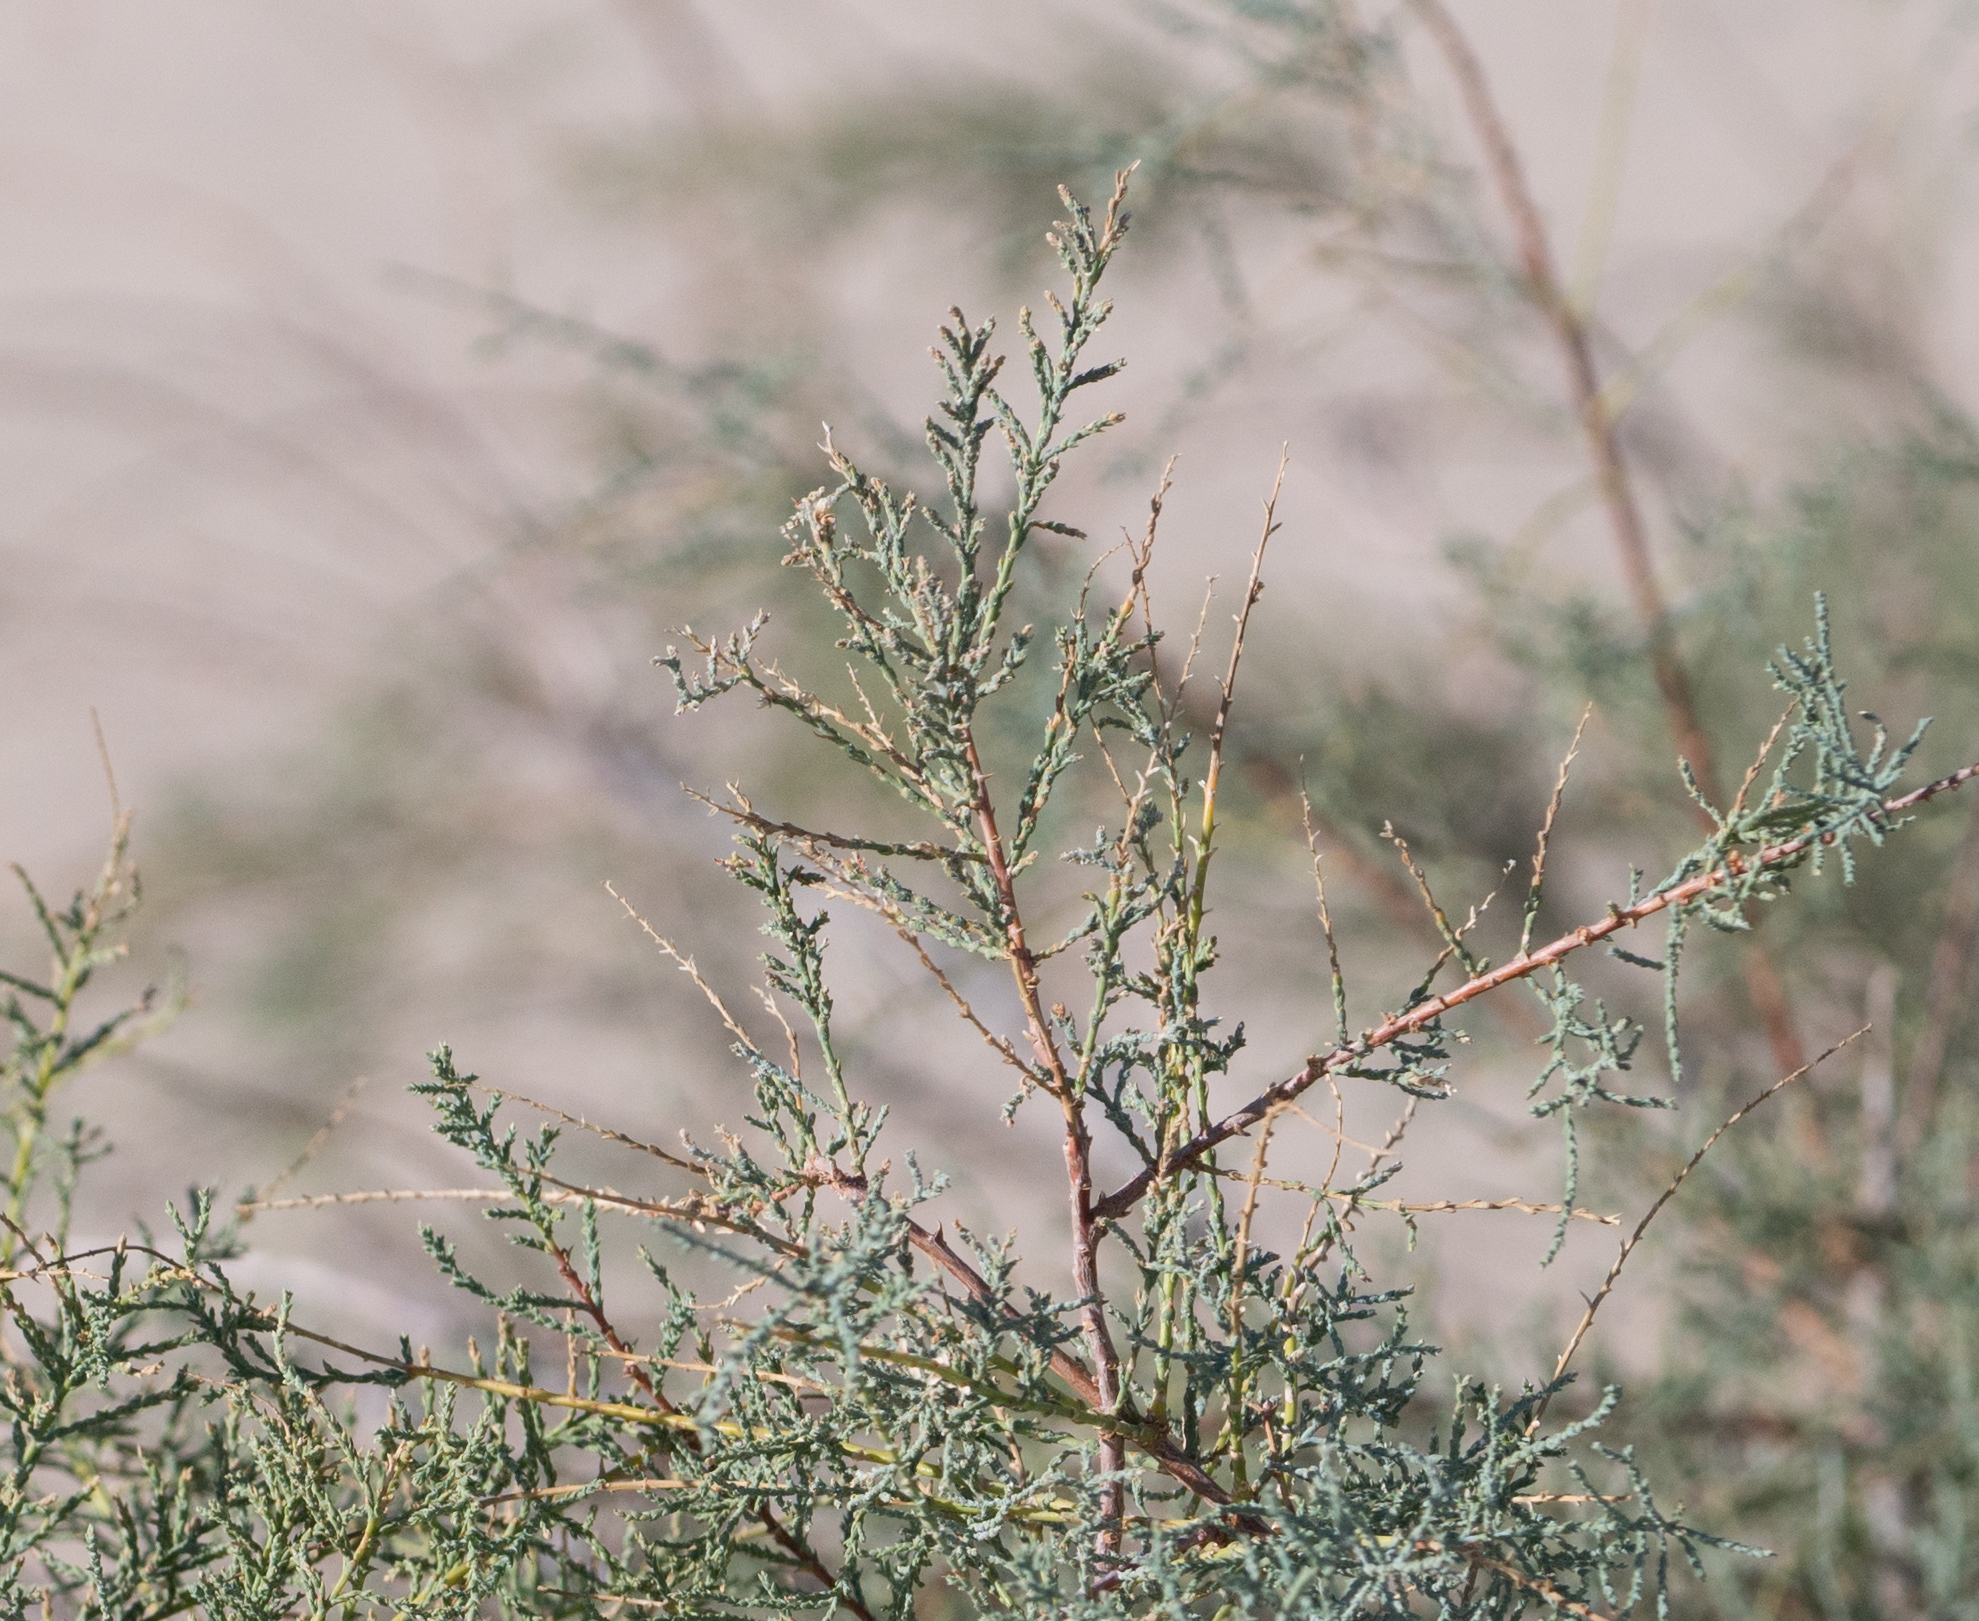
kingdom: Plantae
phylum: Tracheophyta
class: Magnoliopsida
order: Caryophyllales
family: Tamaricaceae
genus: Tamarix
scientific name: Tamarix
